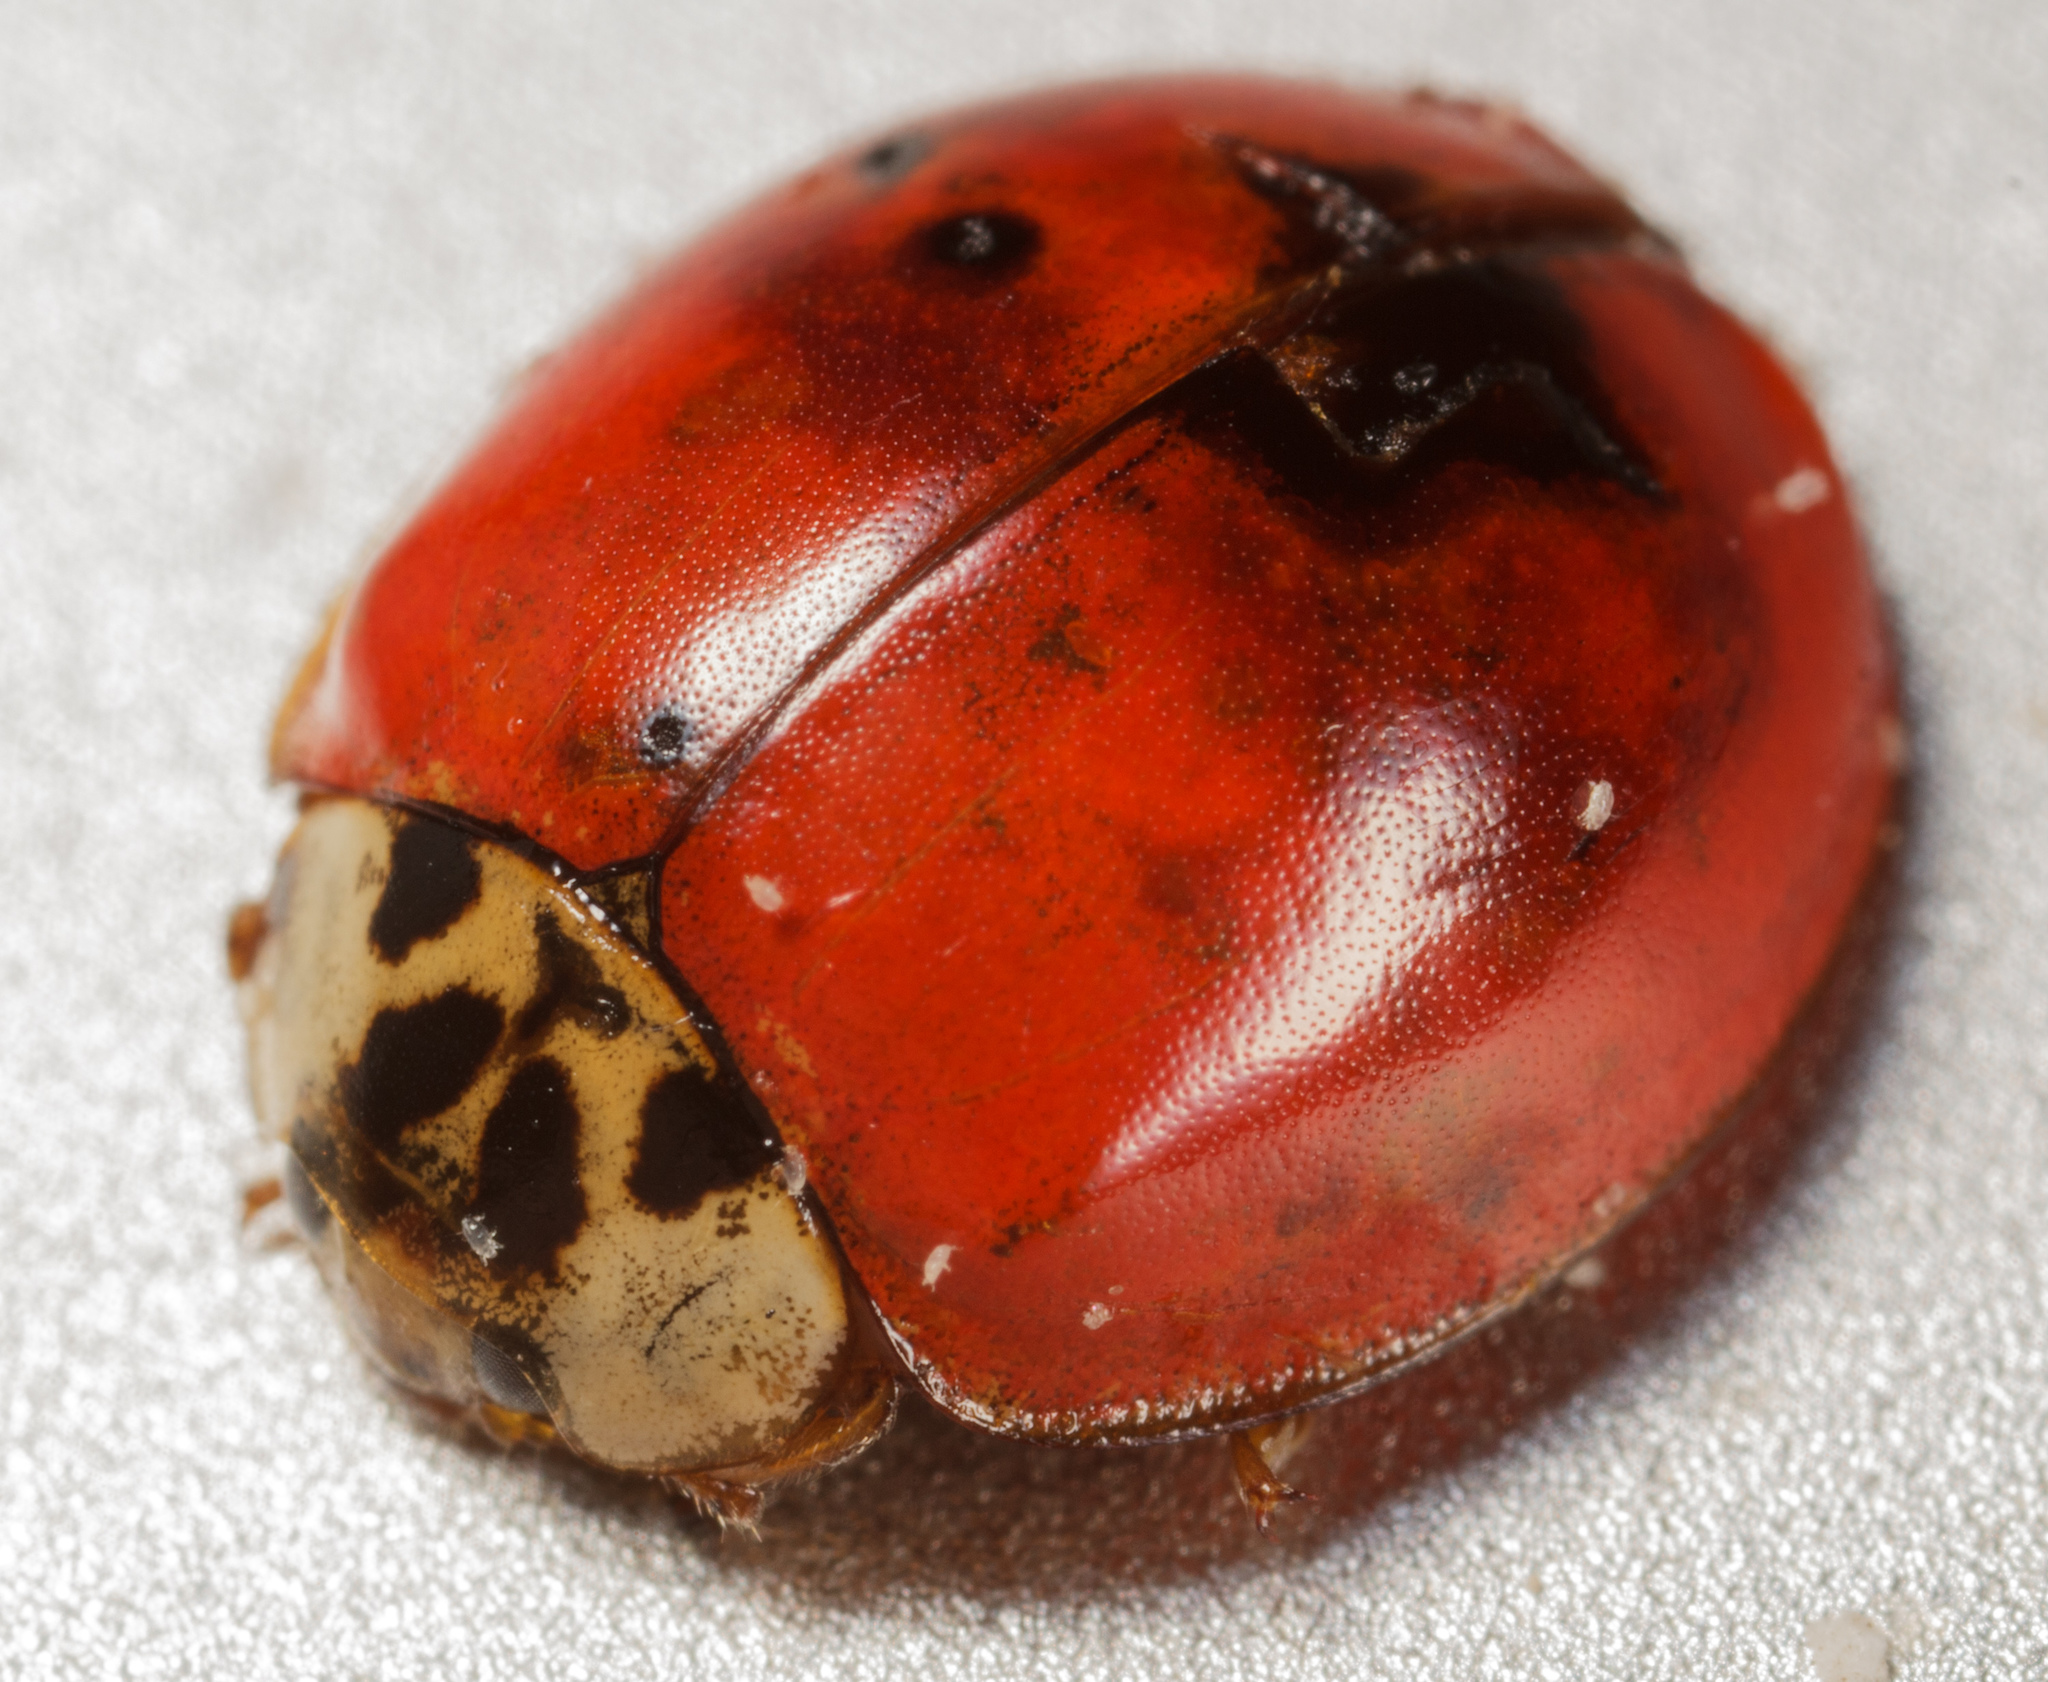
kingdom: Animalia
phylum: Arthropoda
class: Insecta
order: Coleoptera
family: Coccinellidae
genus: Harmonia
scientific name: Harmonia axyridis
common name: Harlequin ladybird
